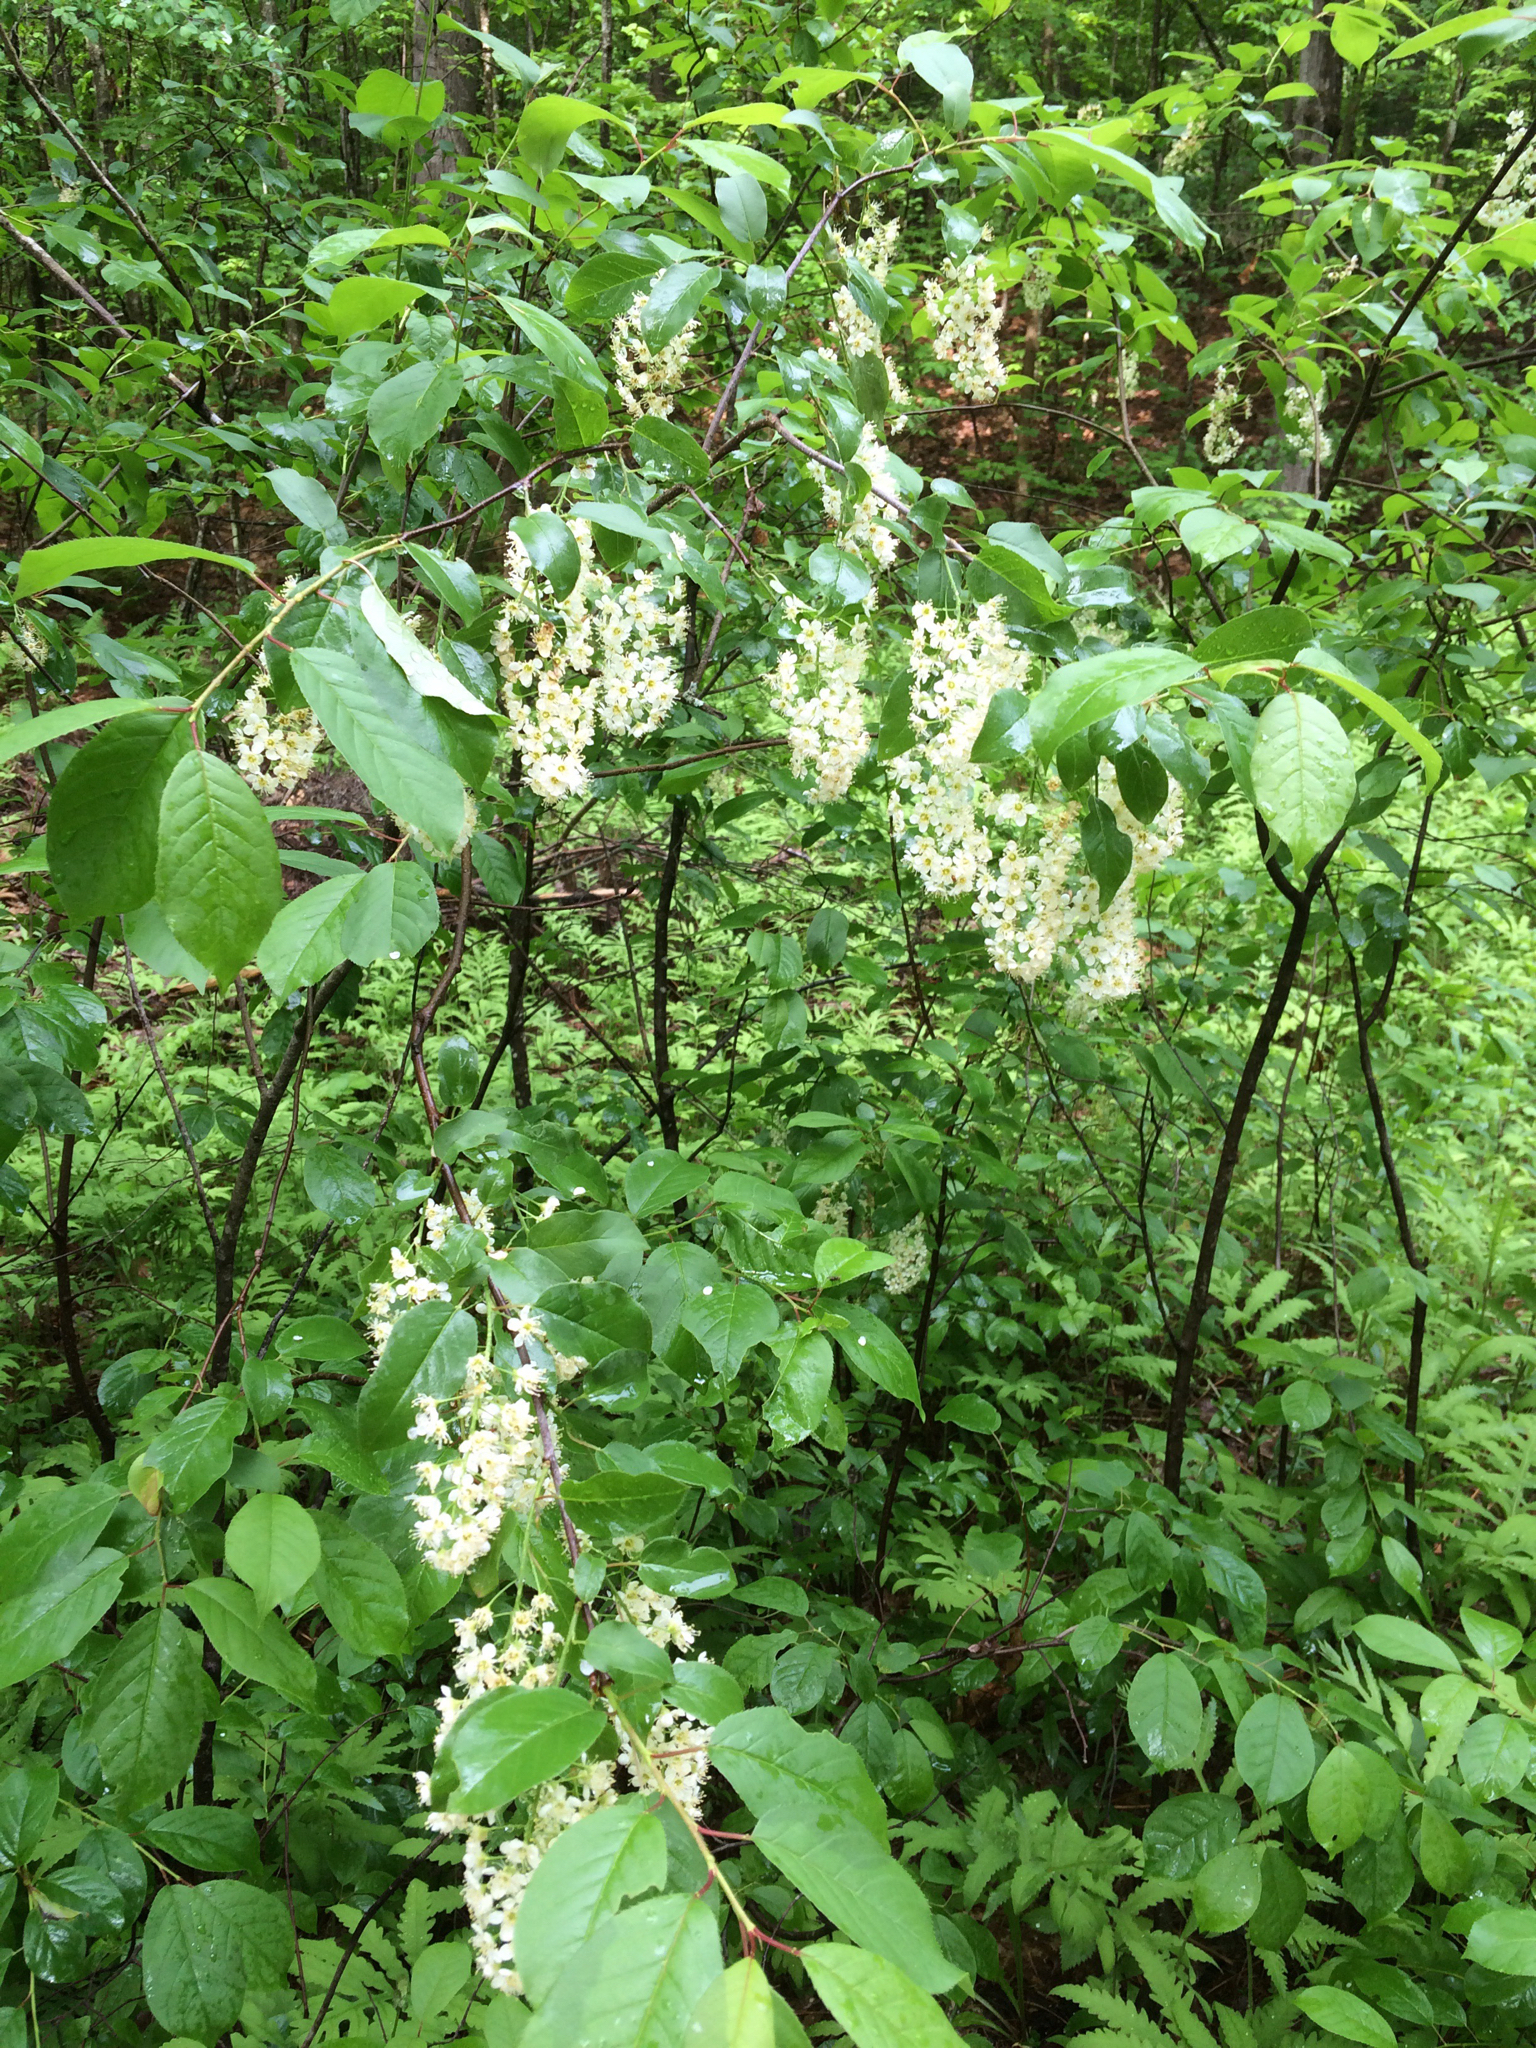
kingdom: Plantae
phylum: Tracheophyta
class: Magnoliopsida
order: Rosales
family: Rosaceae
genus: Prunus
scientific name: Prunus virginiana
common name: Chokecherry
